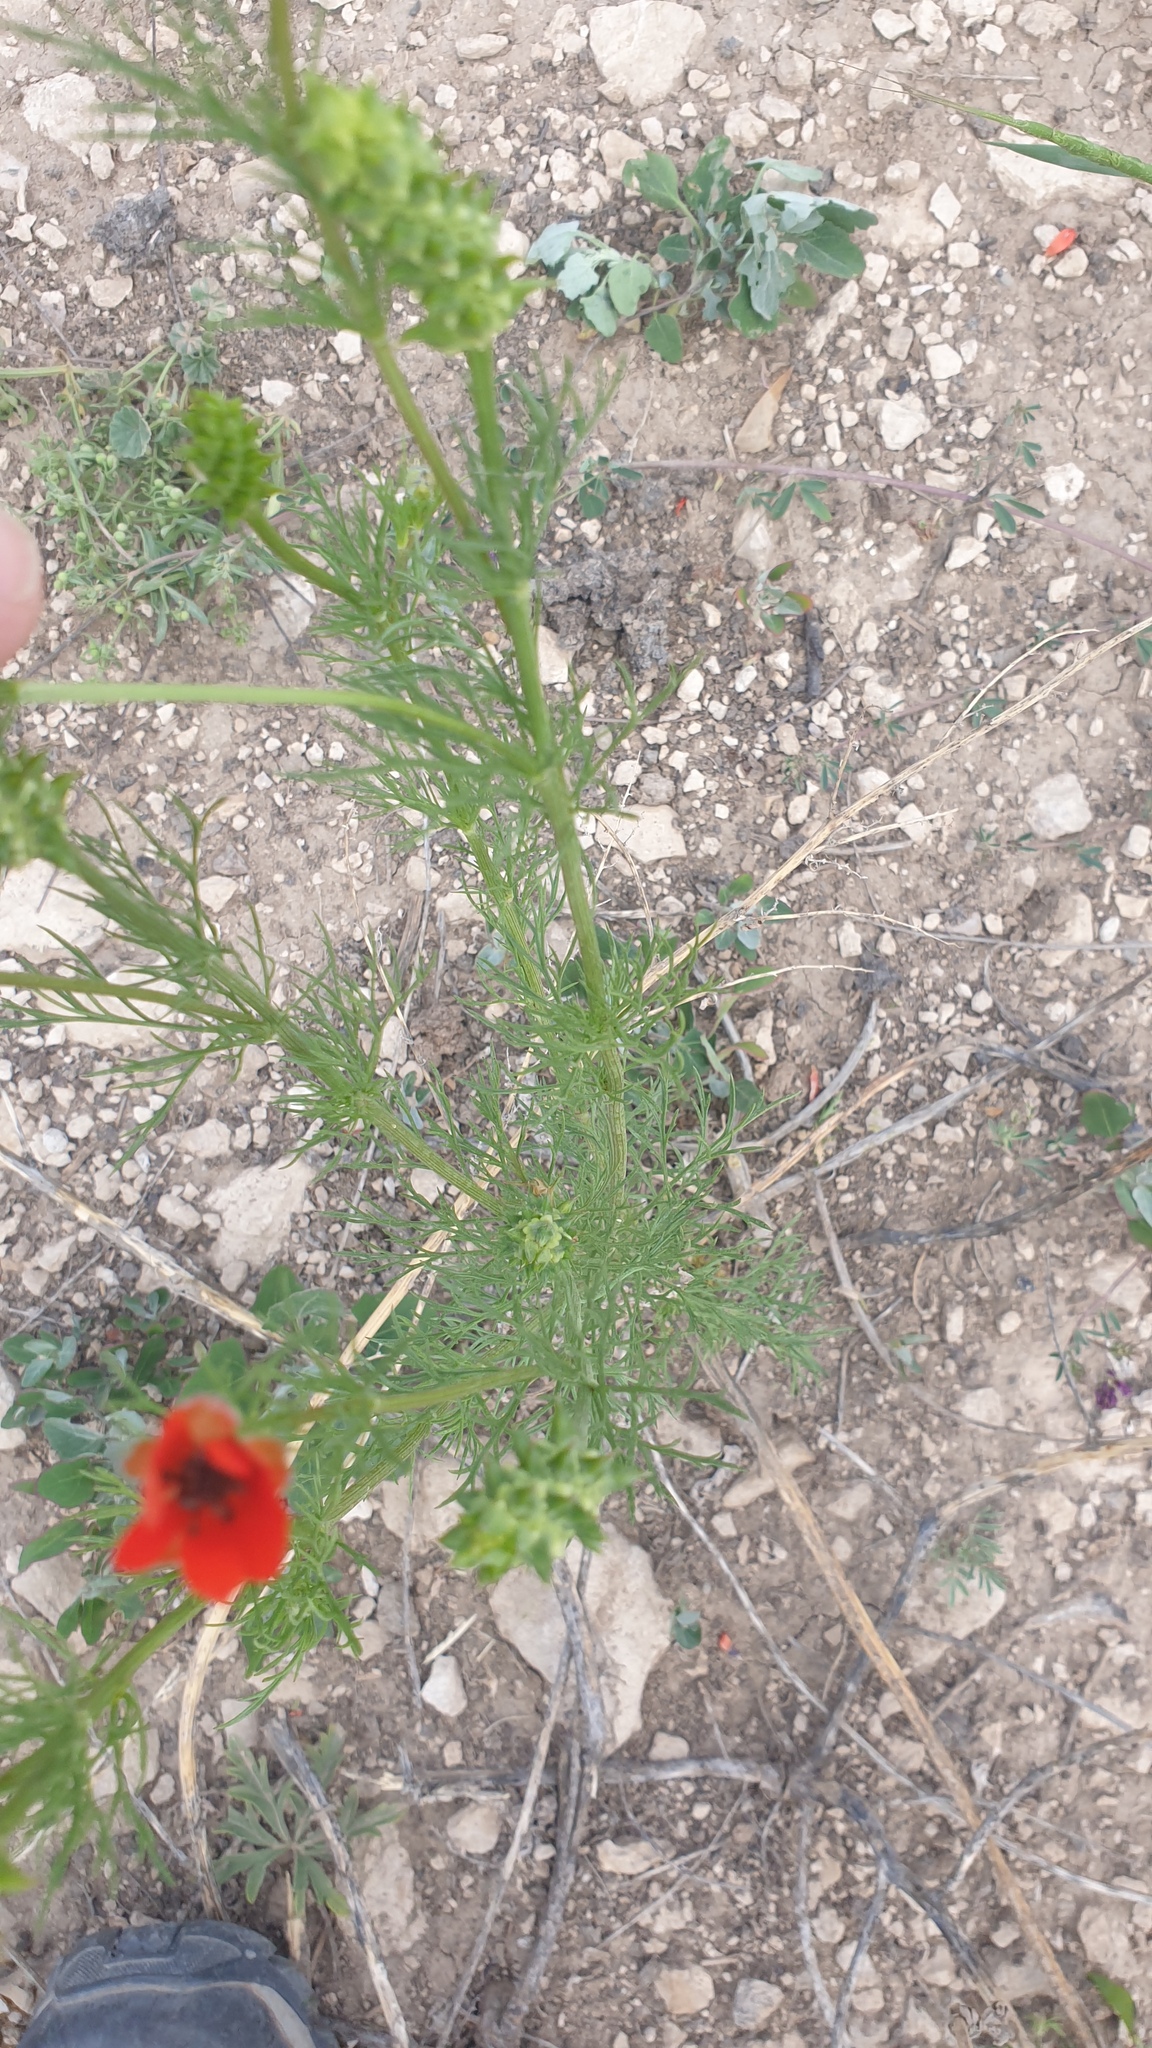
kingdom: Plantae
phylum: Tracheophyta
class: Magnoliopsida
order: Ranunculales
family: Ranunculaceae
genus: Adonis
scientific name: Adonis aestivalis
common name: Summer pheasant's-eye
